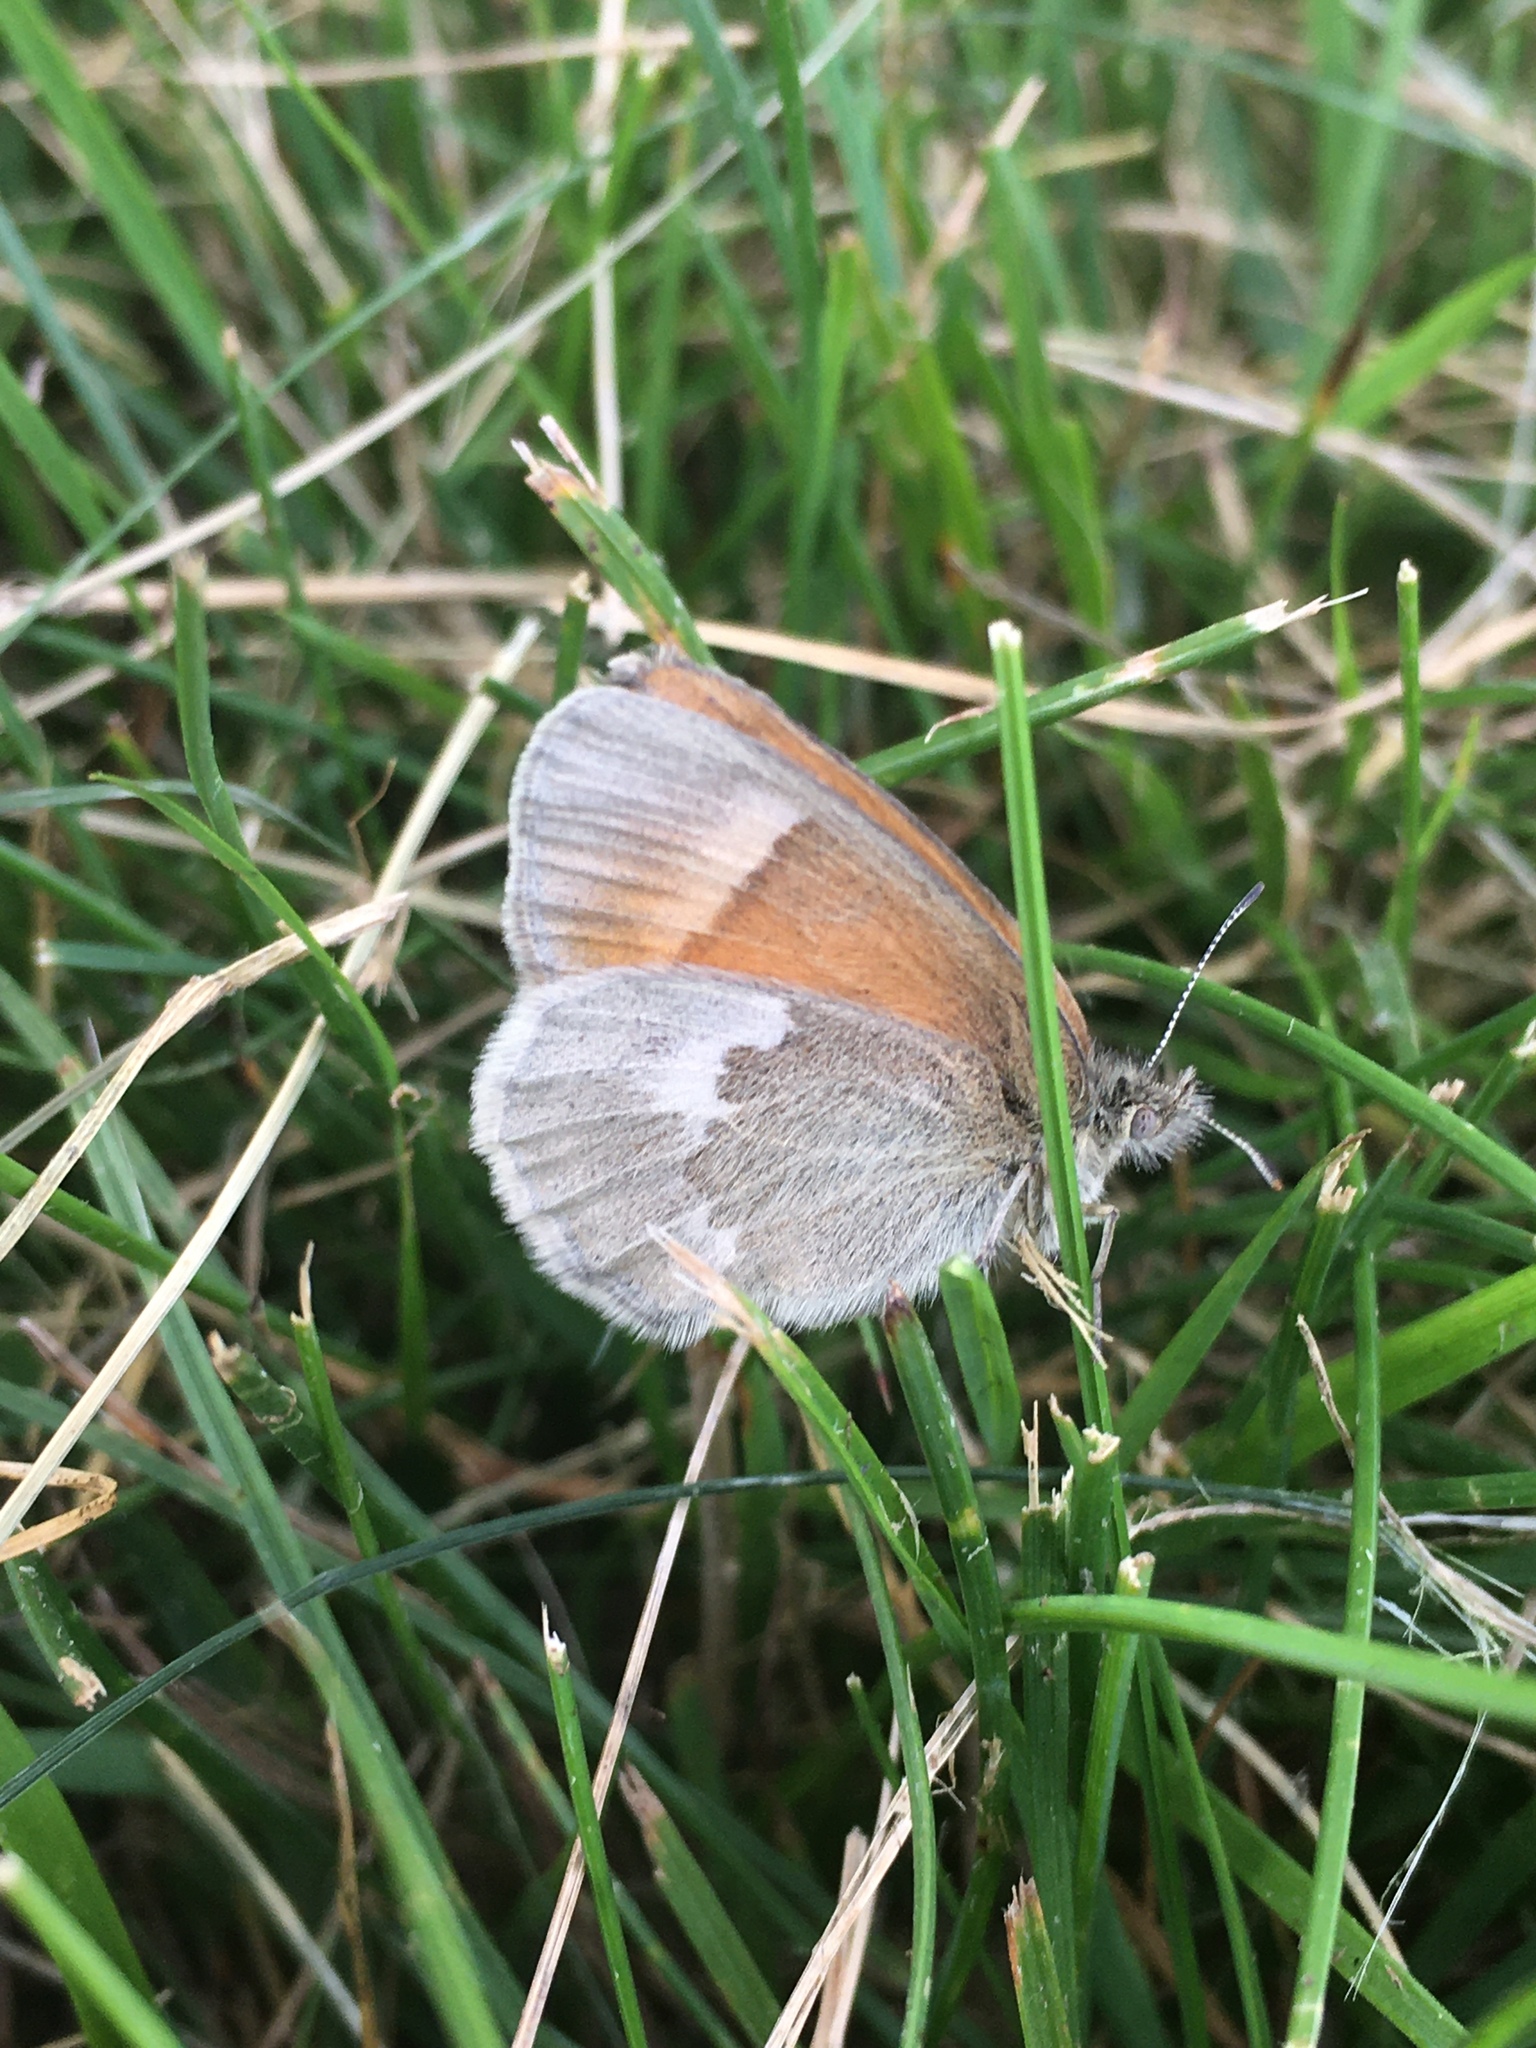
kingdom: Animalia
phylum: Arthropoda
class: Insecta
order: Lepidoptera
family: Nymphalidae
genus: Coenonympha
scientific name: Coenonympha california
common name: Common ringlet
